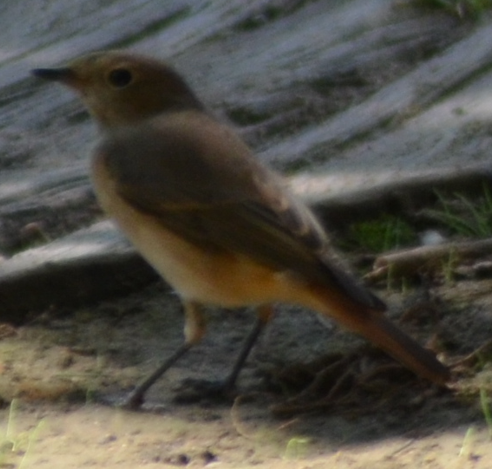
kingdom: Animalia
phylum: Chordata
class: Aves
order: Passeriformes
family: Muscicapidae
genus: Phoenicurus
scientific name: Phoenicurus phoenicurus
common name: Common redstart
